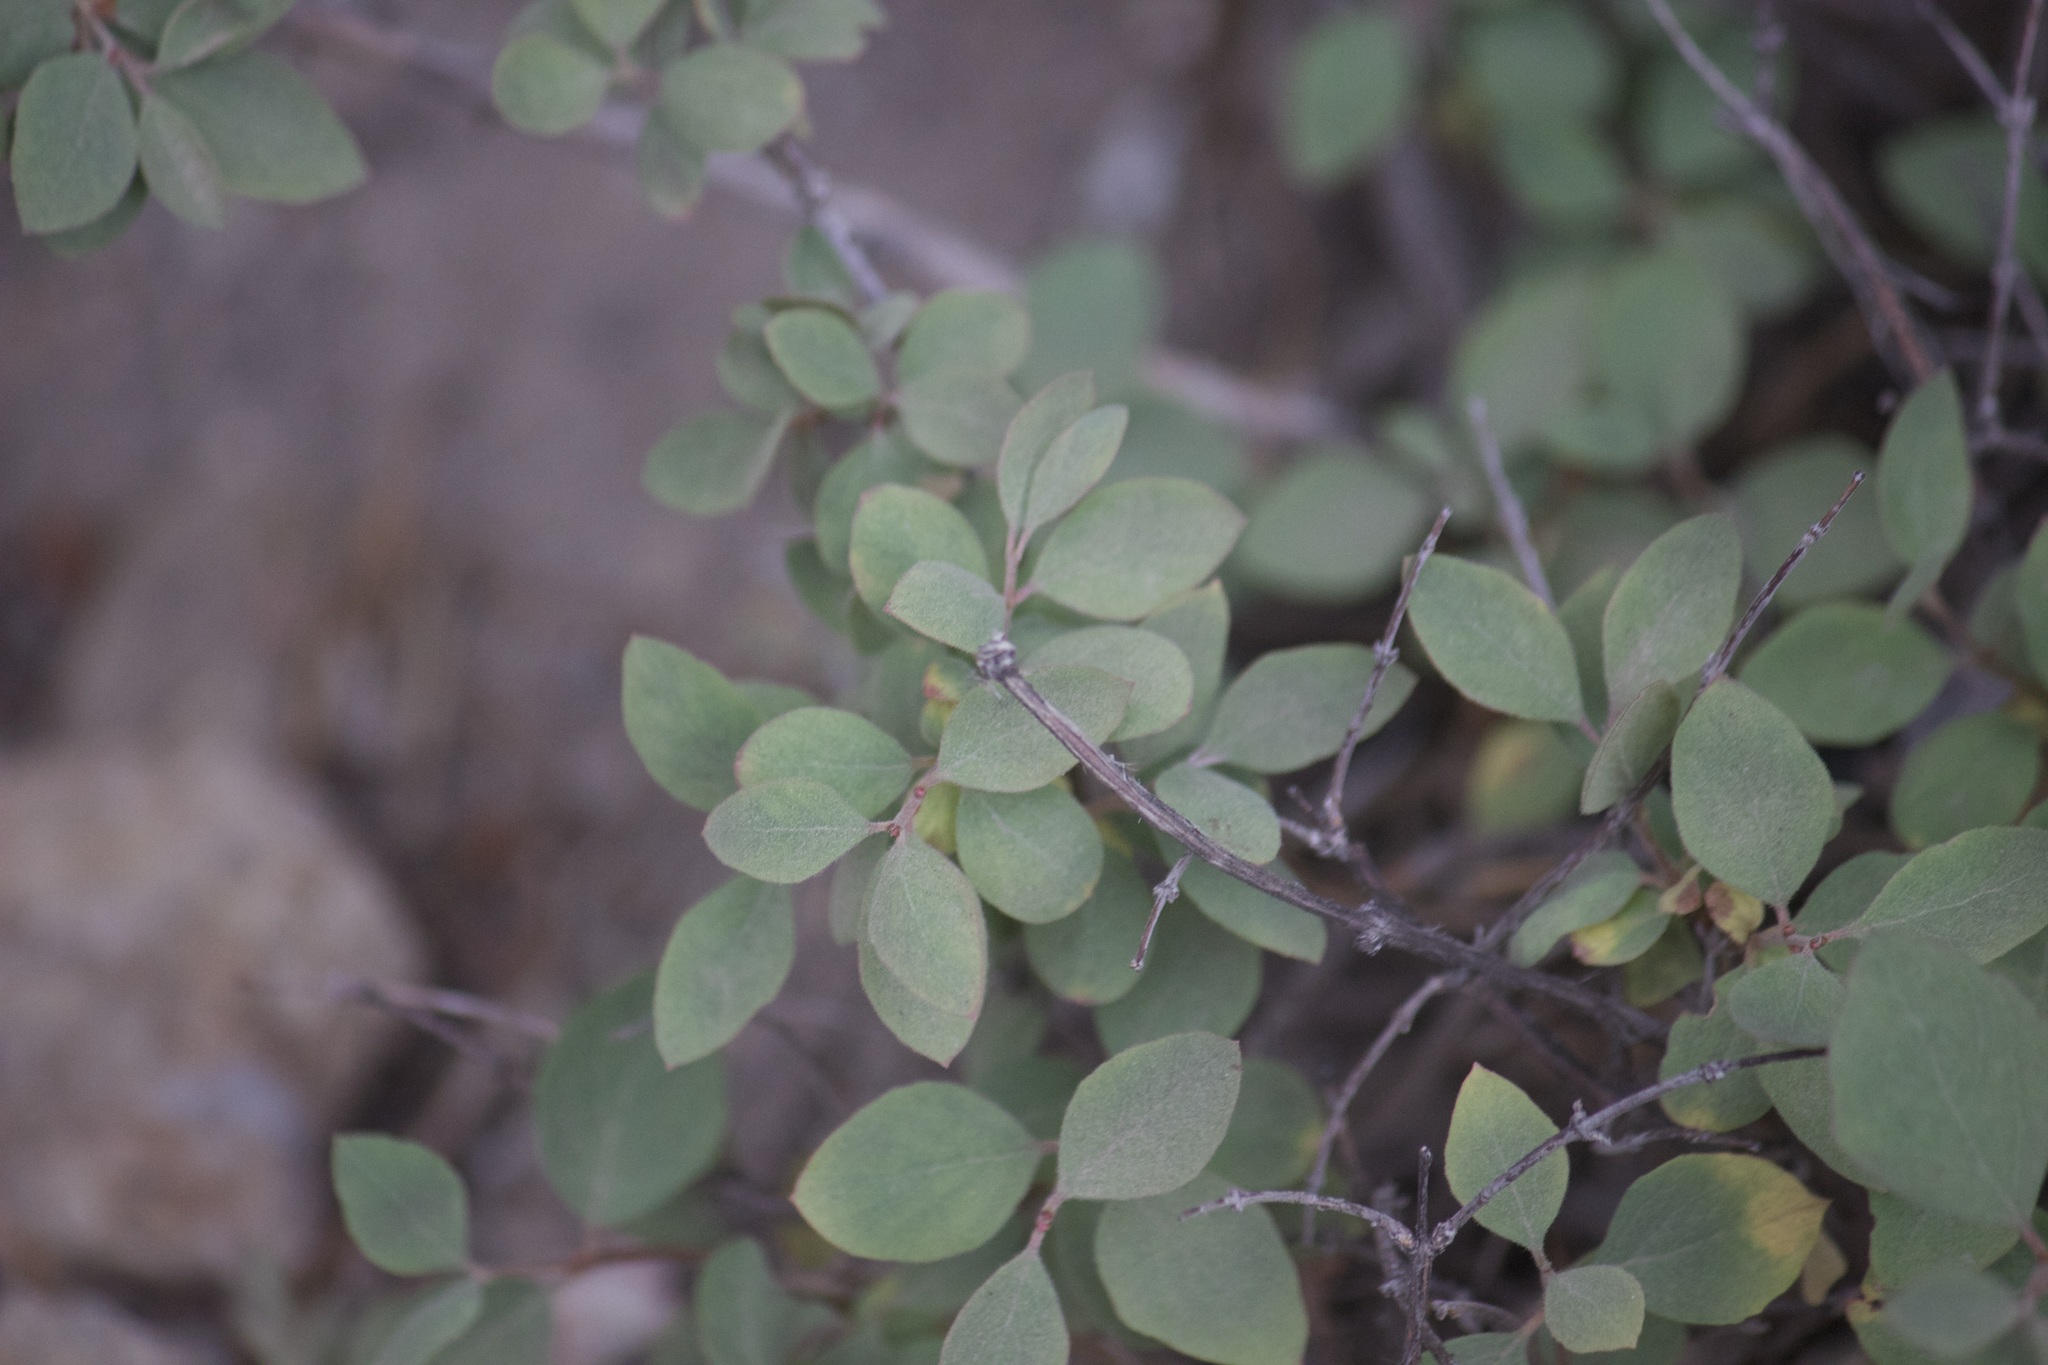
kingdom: Plantae
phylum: Tracheophyta
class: Magnoliopsida
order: Dipsacales
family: Caprifoliaceae
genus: Symphoricarpos
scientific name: Symphoricarpos rotundifolius
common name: Round-leaved snowberry
